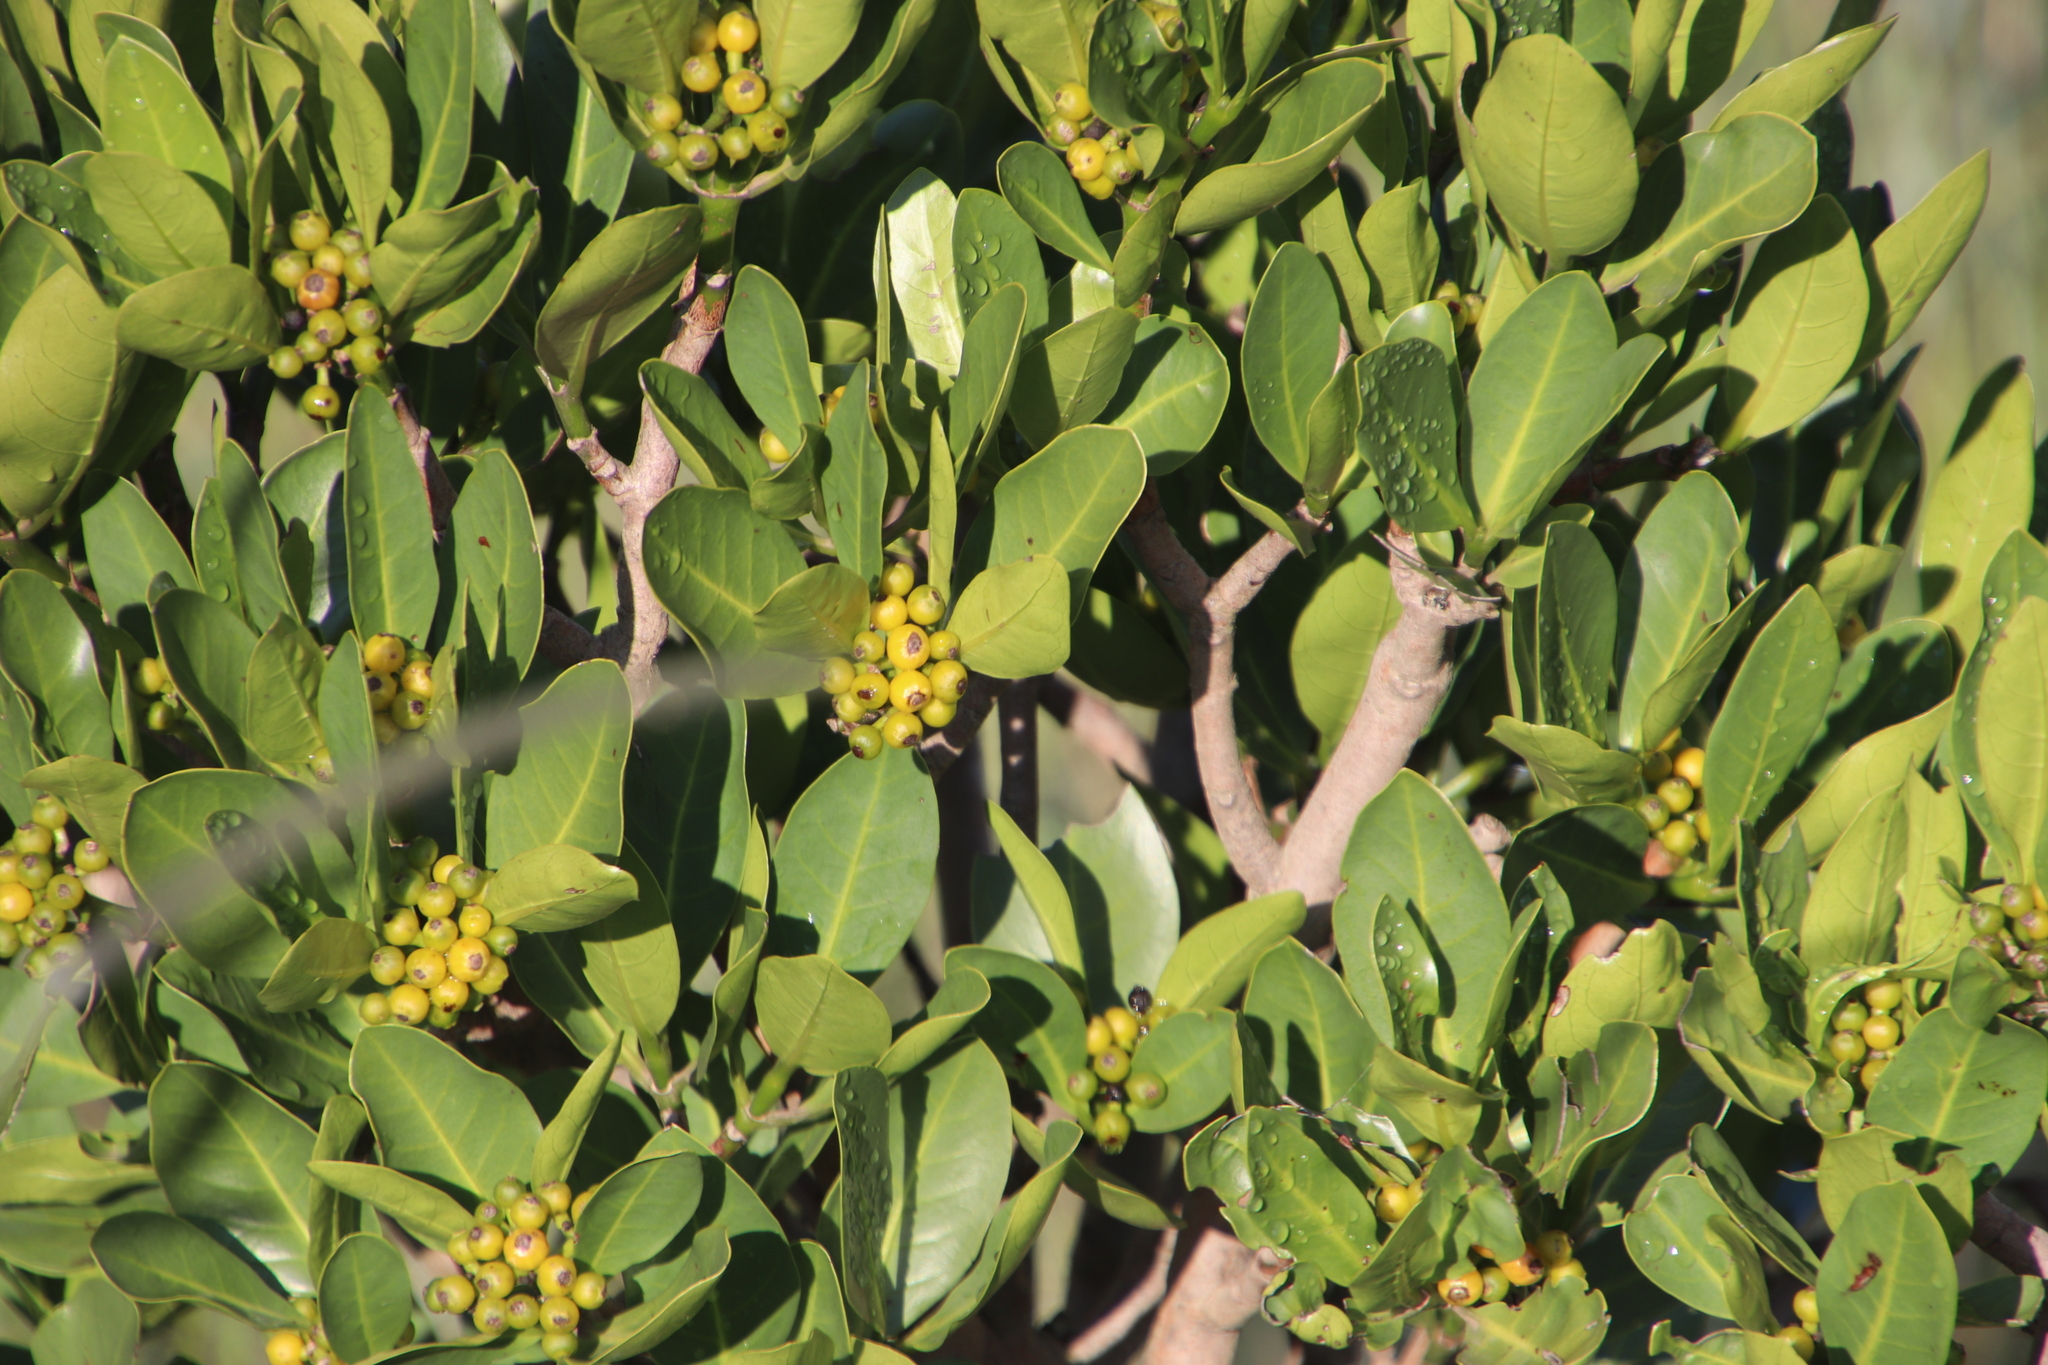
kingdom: Plantae
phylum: Tracheophyta
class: Magnoliopsida
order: Gentianales
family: Rubiaceae
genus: Psychotria
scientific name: Psychotria
